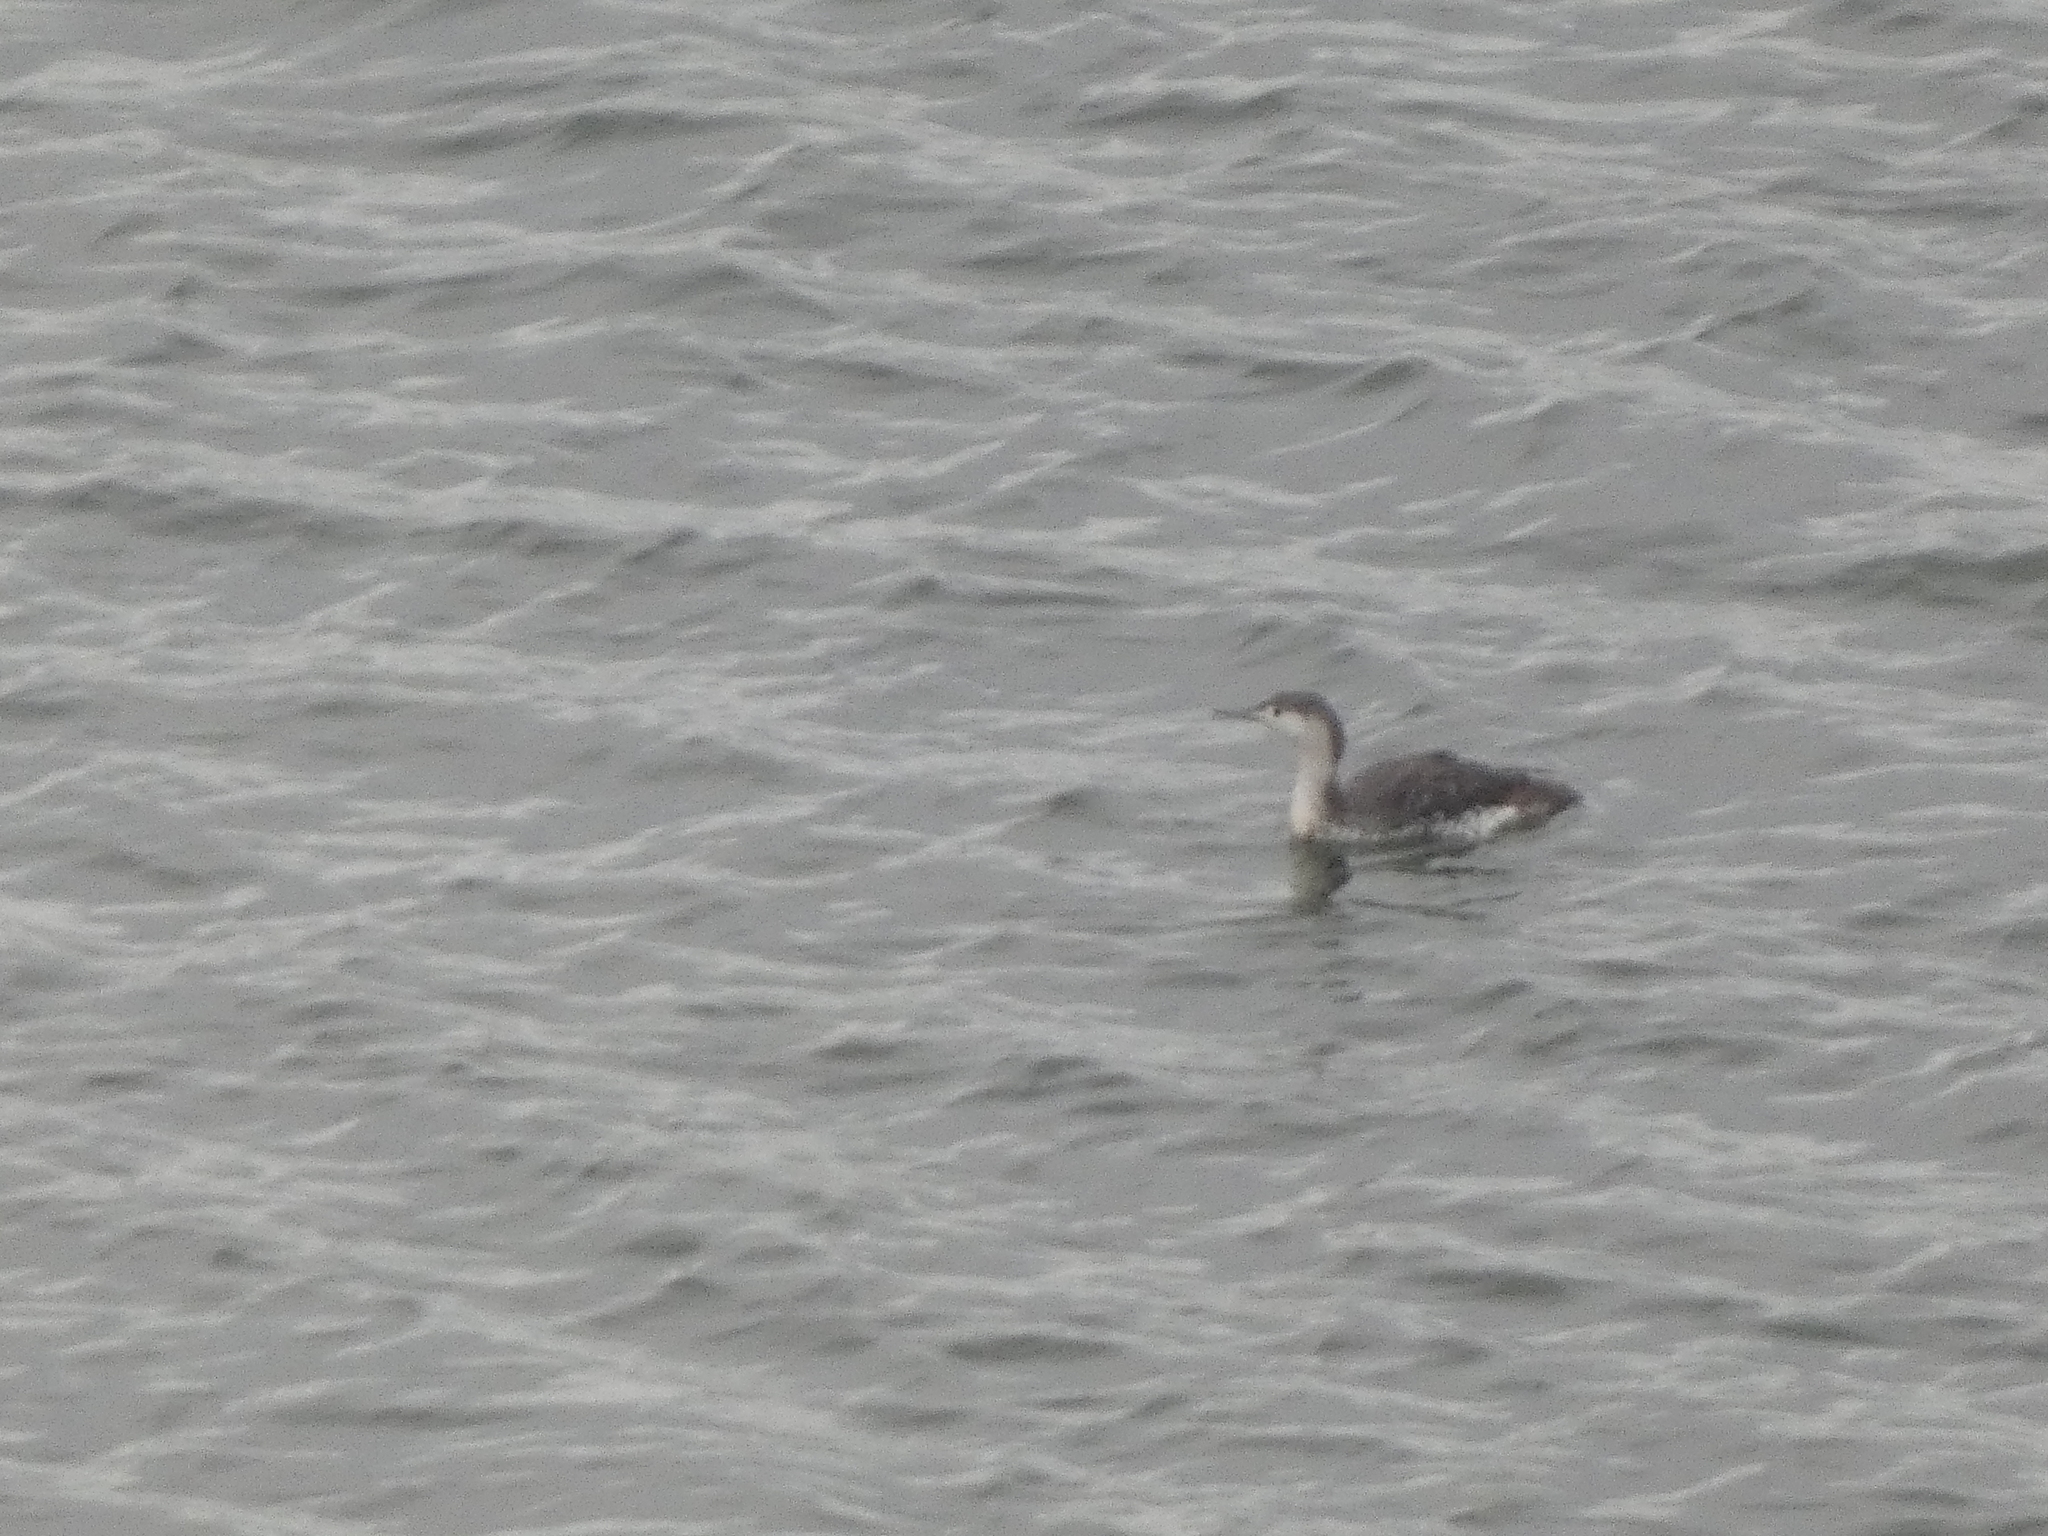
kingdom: Animalia
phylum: Chordata
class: Aves
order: Gaviiformes
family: Gaviidae
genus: Gavia
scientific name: Gavia stellata
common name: Red-throated loon
